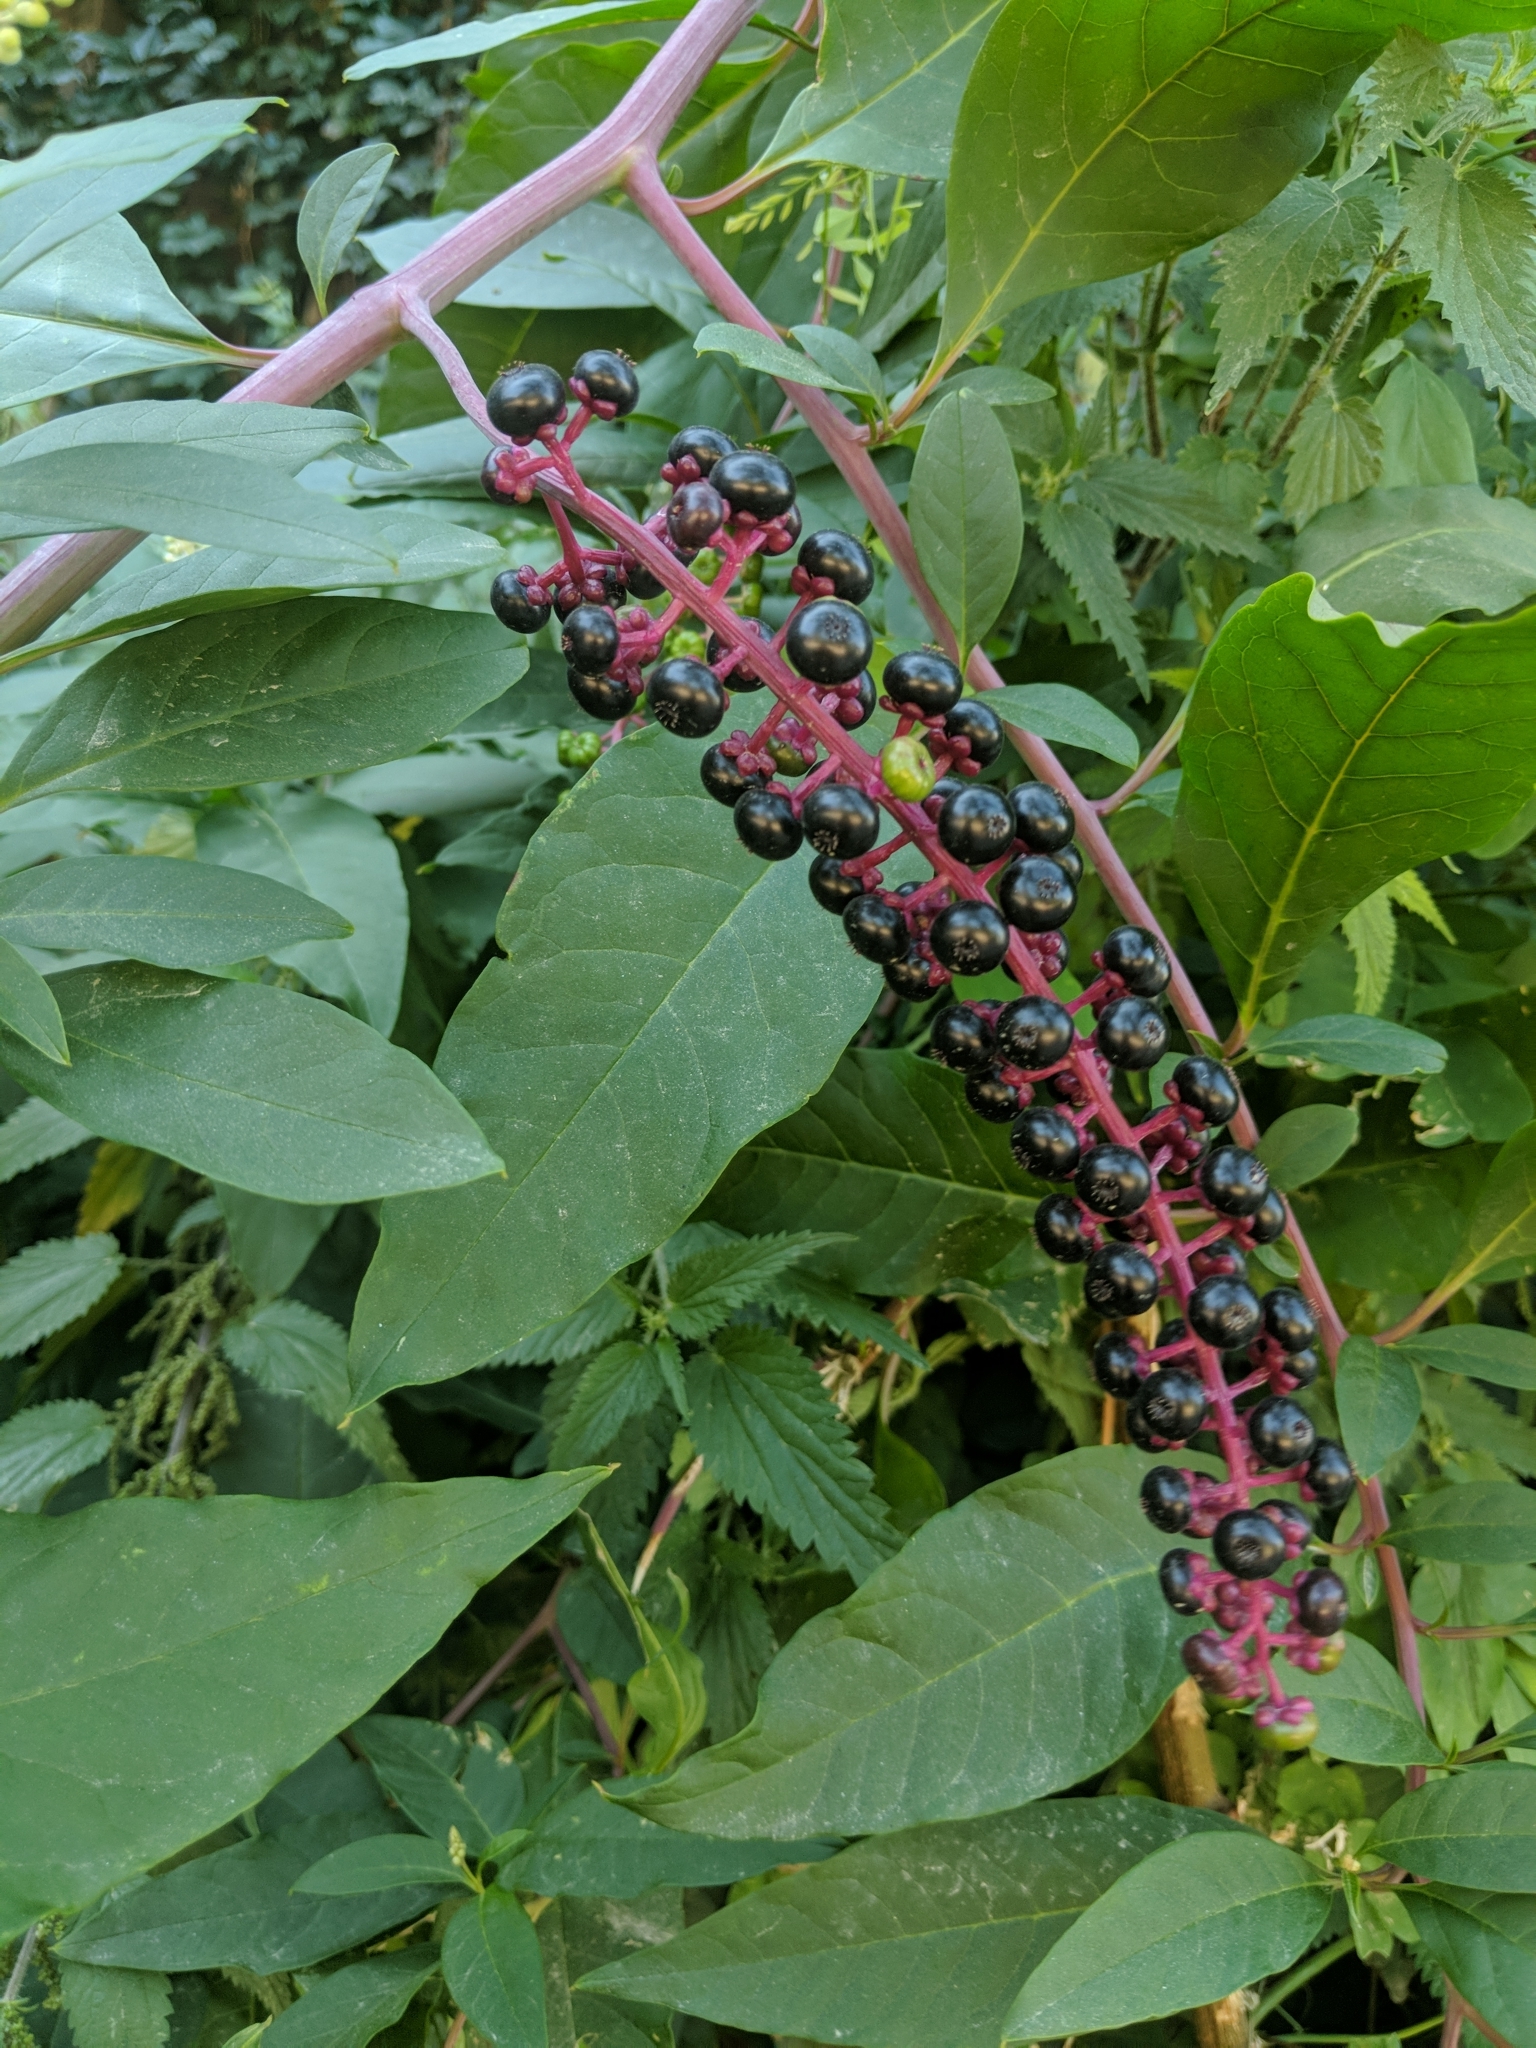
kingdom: Plantae
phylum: Tracheophyta
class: Magnoliopsida
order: Caryophyllales
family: Phytolaccaceae
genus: Phytolacca
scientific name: Phytolacca americana
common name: American pokeweed
